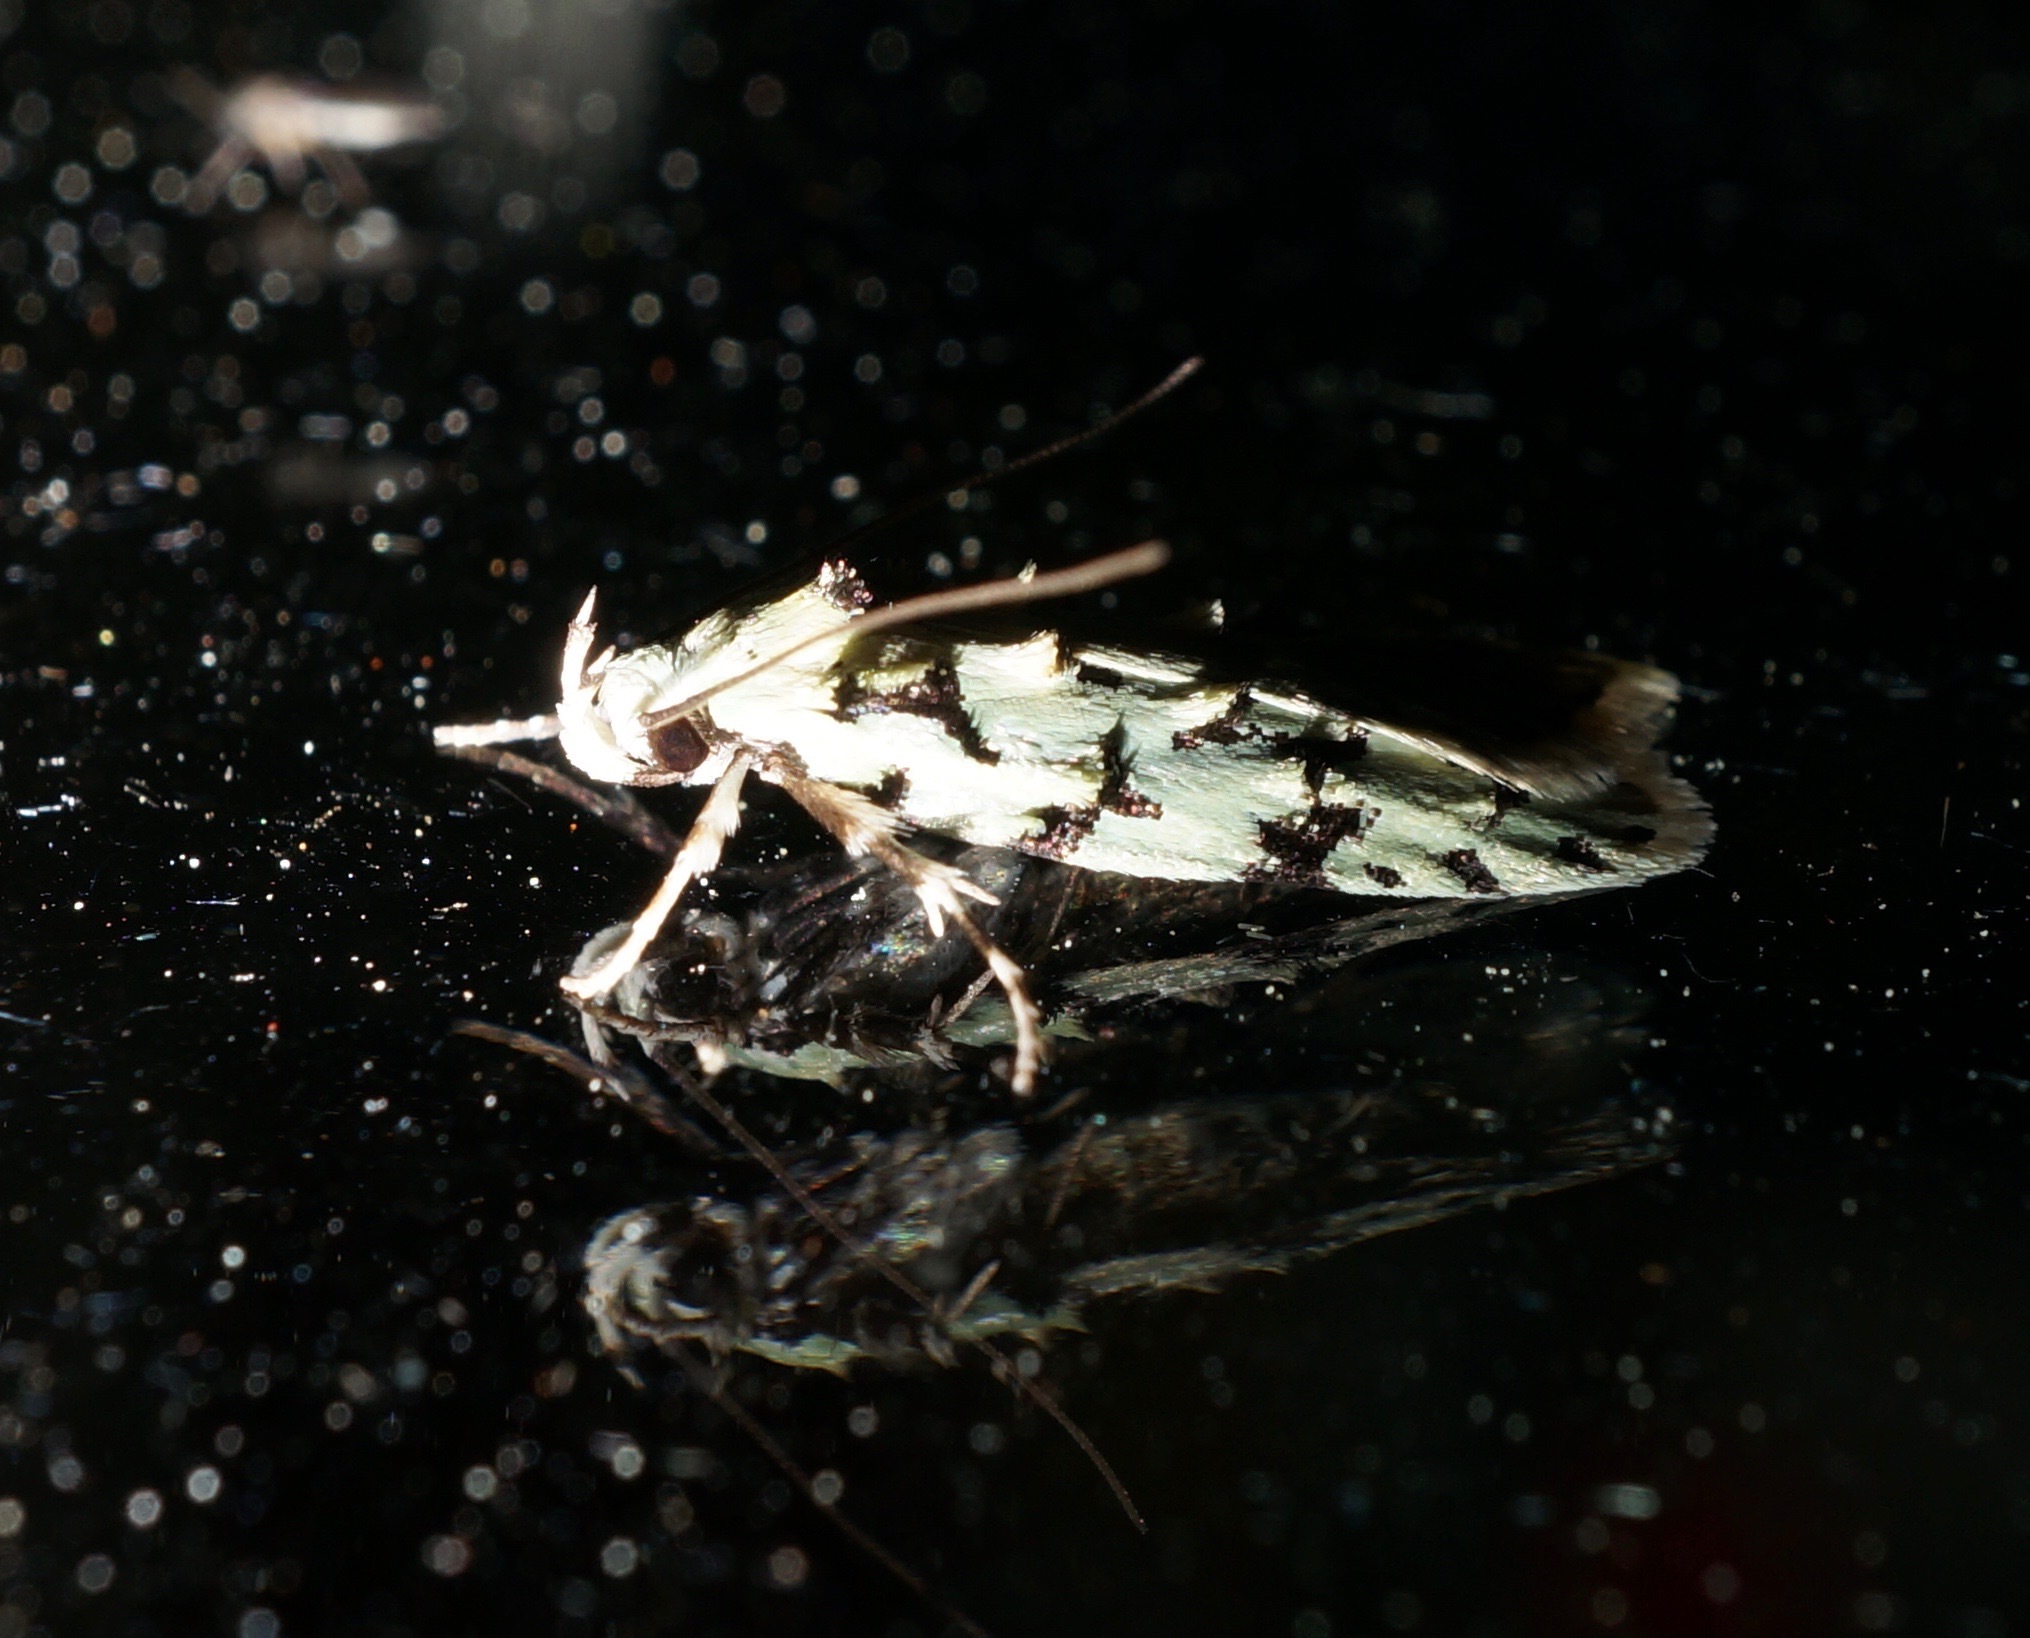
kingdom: Animalia
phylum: Arthropoda
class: Insecta
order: Lepidoptera
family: Oecophoridae
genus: Izatha
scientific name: Izatha huttoni
